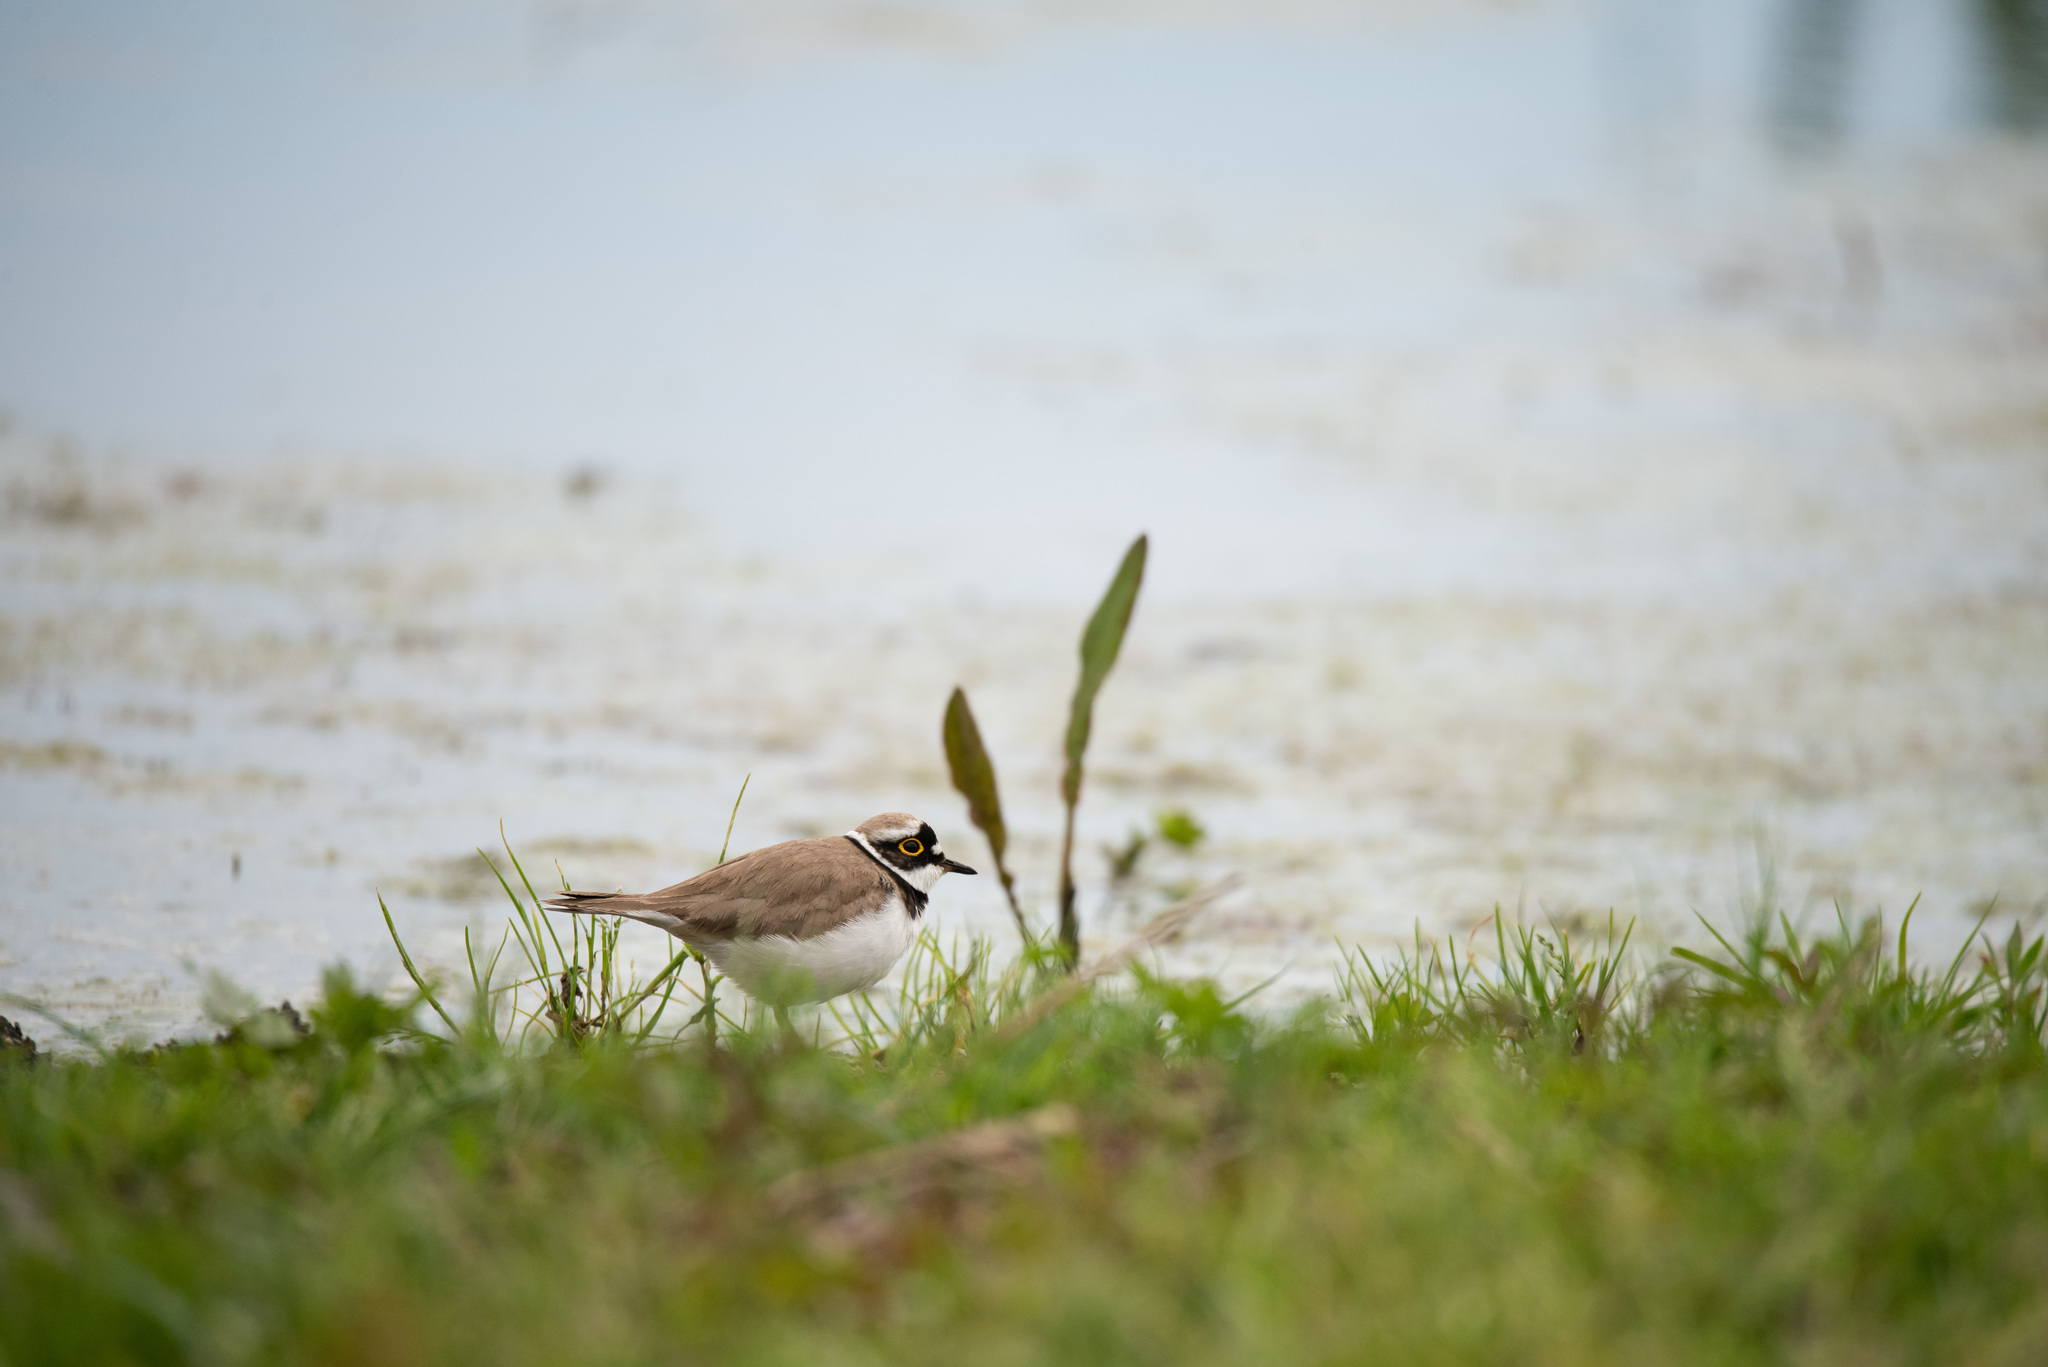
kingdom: Animalia
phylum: Chordata
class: Aves
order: Charadriiformes
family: Charadriidae
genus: Charadrius
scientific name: Charadrius dubius
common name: Little ringed plover
